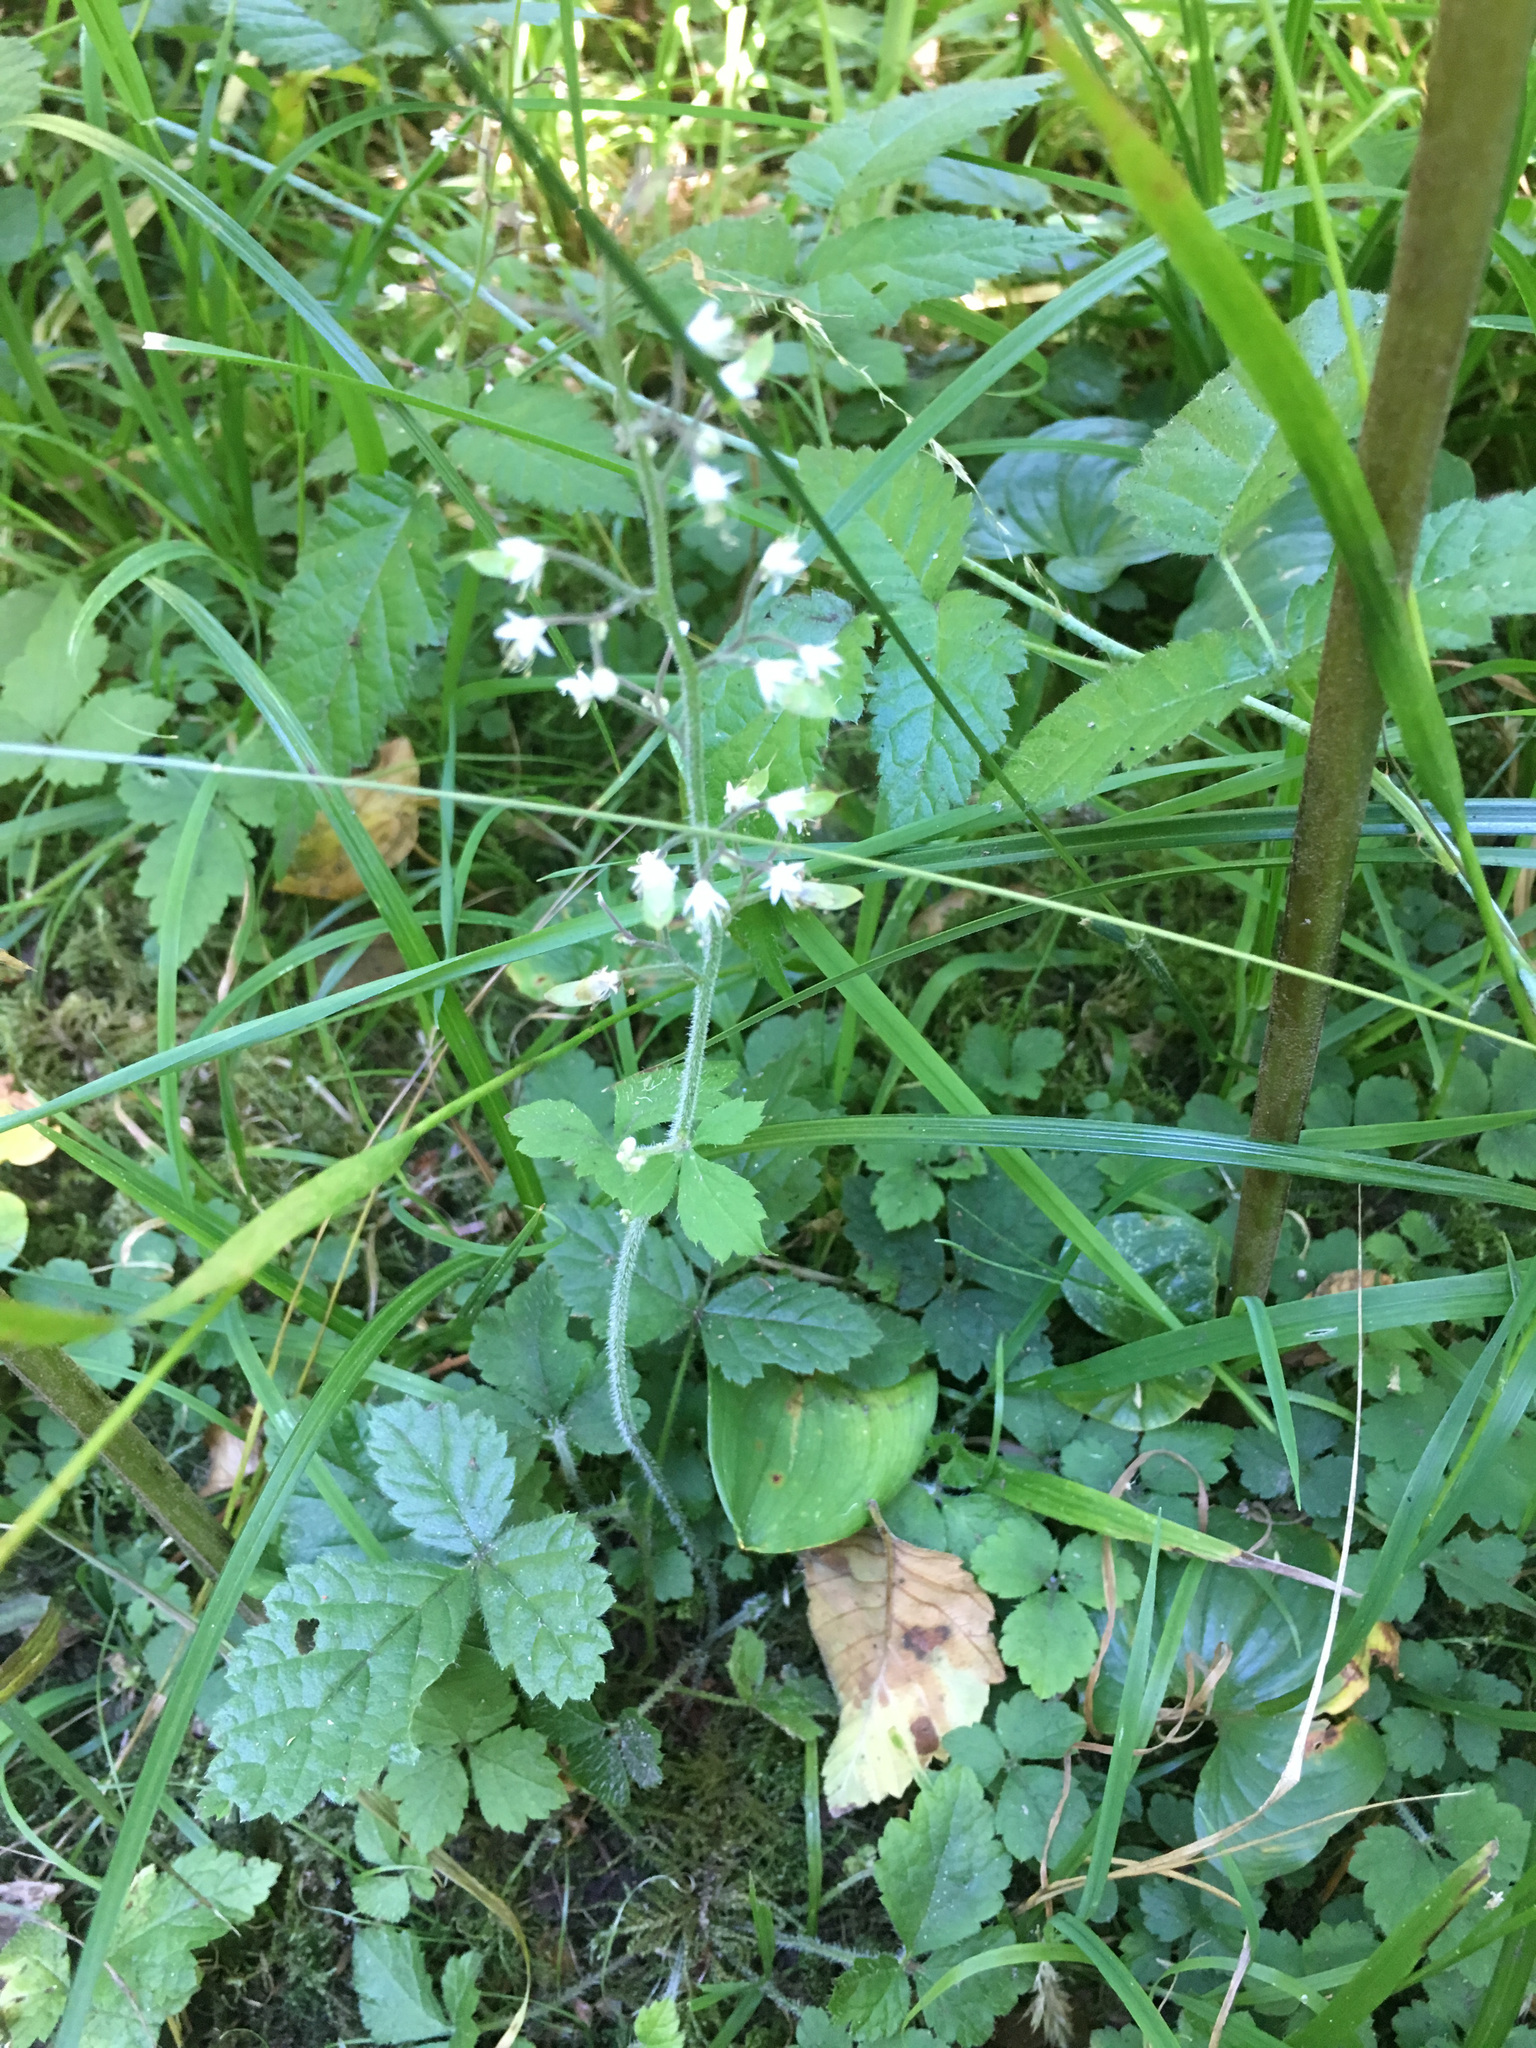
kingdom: Plantae
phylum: Tracheophyta
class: Magnoliopsida
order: Saxifragales
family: Saxifragaceae
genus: Tiarella
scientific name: Tiarella trifoliata
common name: Sugar-scoop
